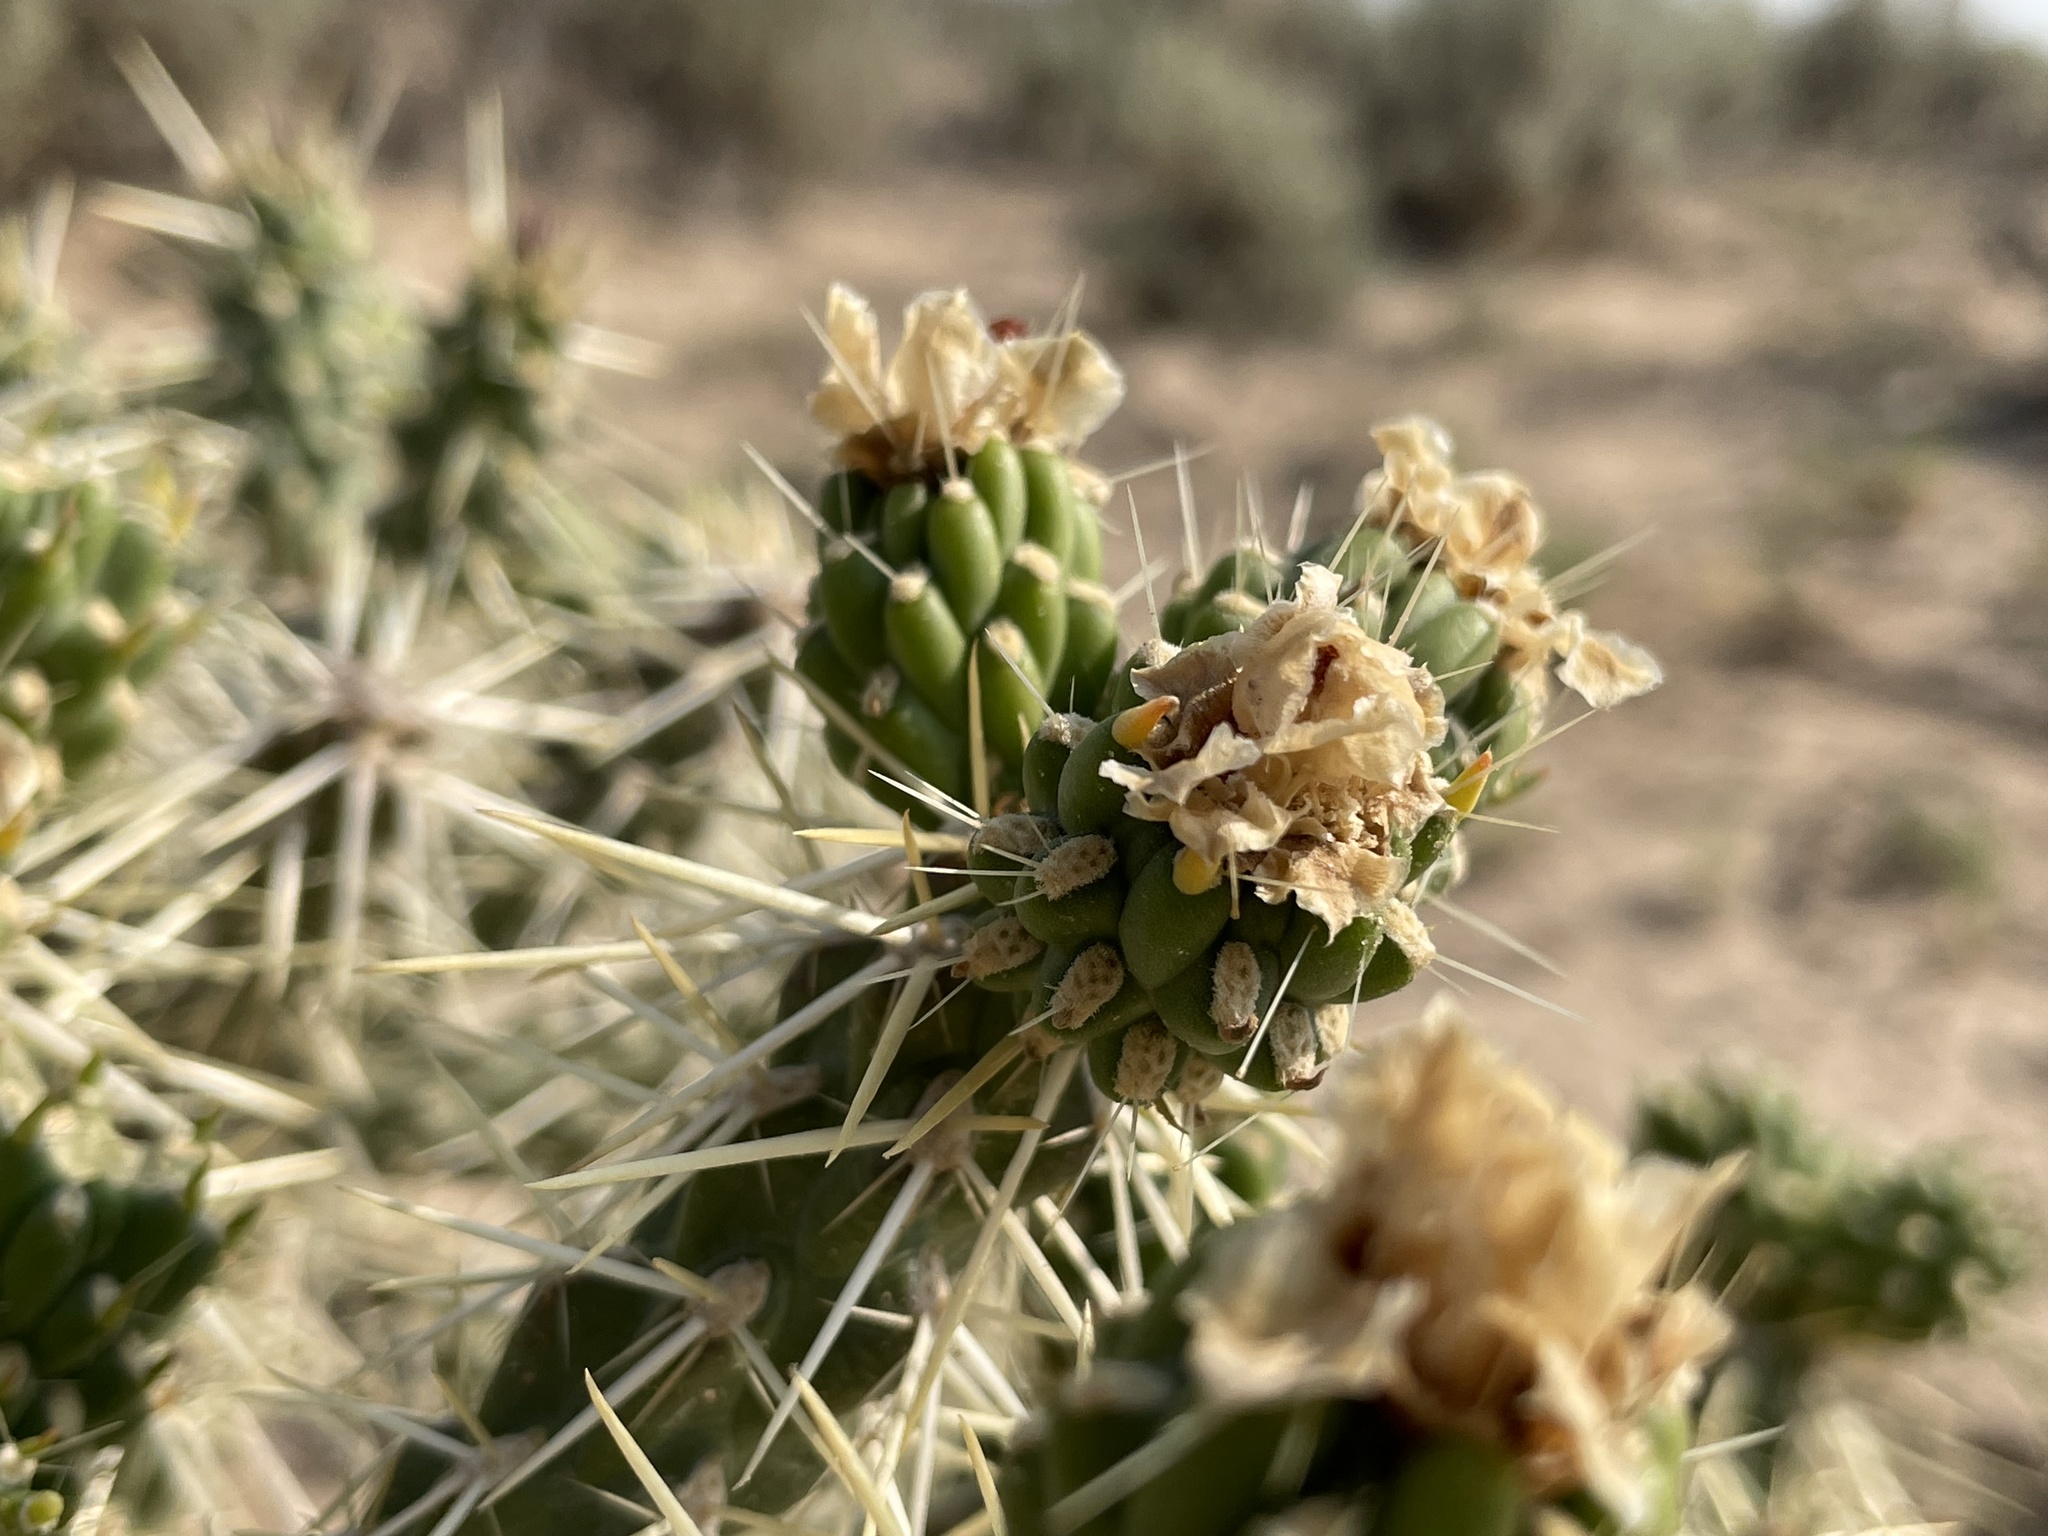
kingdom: Plantae
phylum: Tracheophyta
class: Magnoliopsida
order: Caryophyllales
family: Cactaceae
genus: Cylindropuntia
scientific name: Cylindropuntia whipplei
